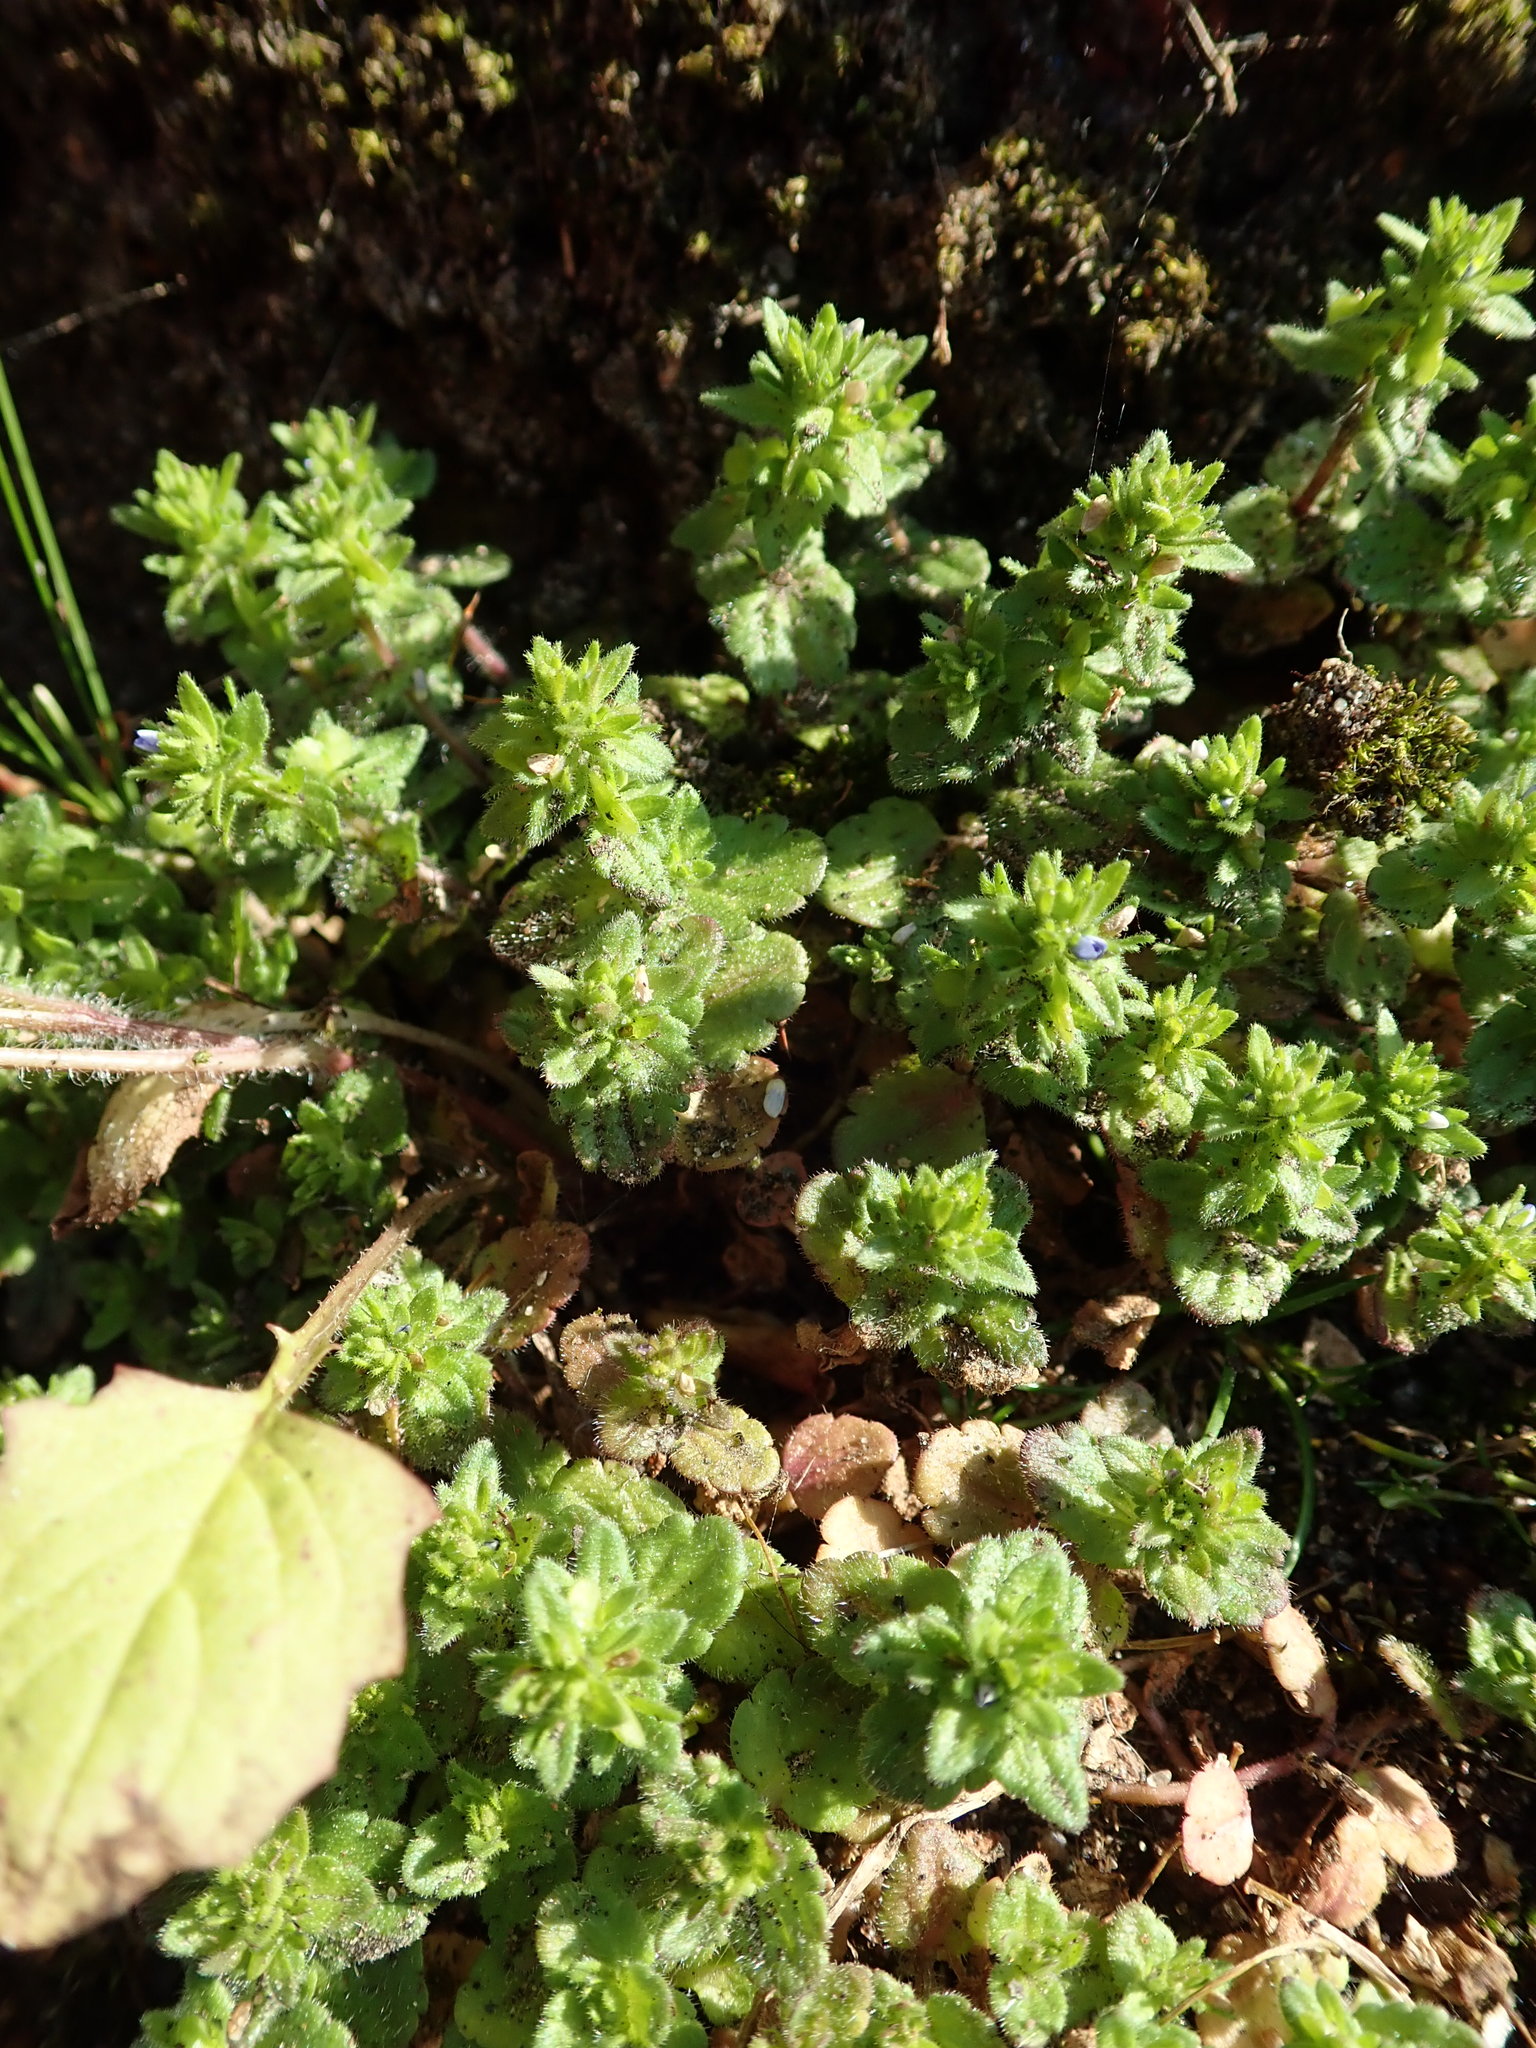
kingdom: Plantae
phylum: Tracheophyta
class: Magnoliopsida
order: Lamiales
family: Plantaginaceae
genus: Veronica
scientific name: Veronica arvensis
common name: Corn speedwell
